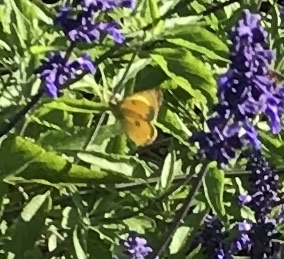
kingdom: Animalia
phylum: Arthropoda
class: Insecta
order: Lepidoptera
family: Pieridae
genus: Colias
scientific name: Colias eurytheme
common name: Alfalfa butterfly
